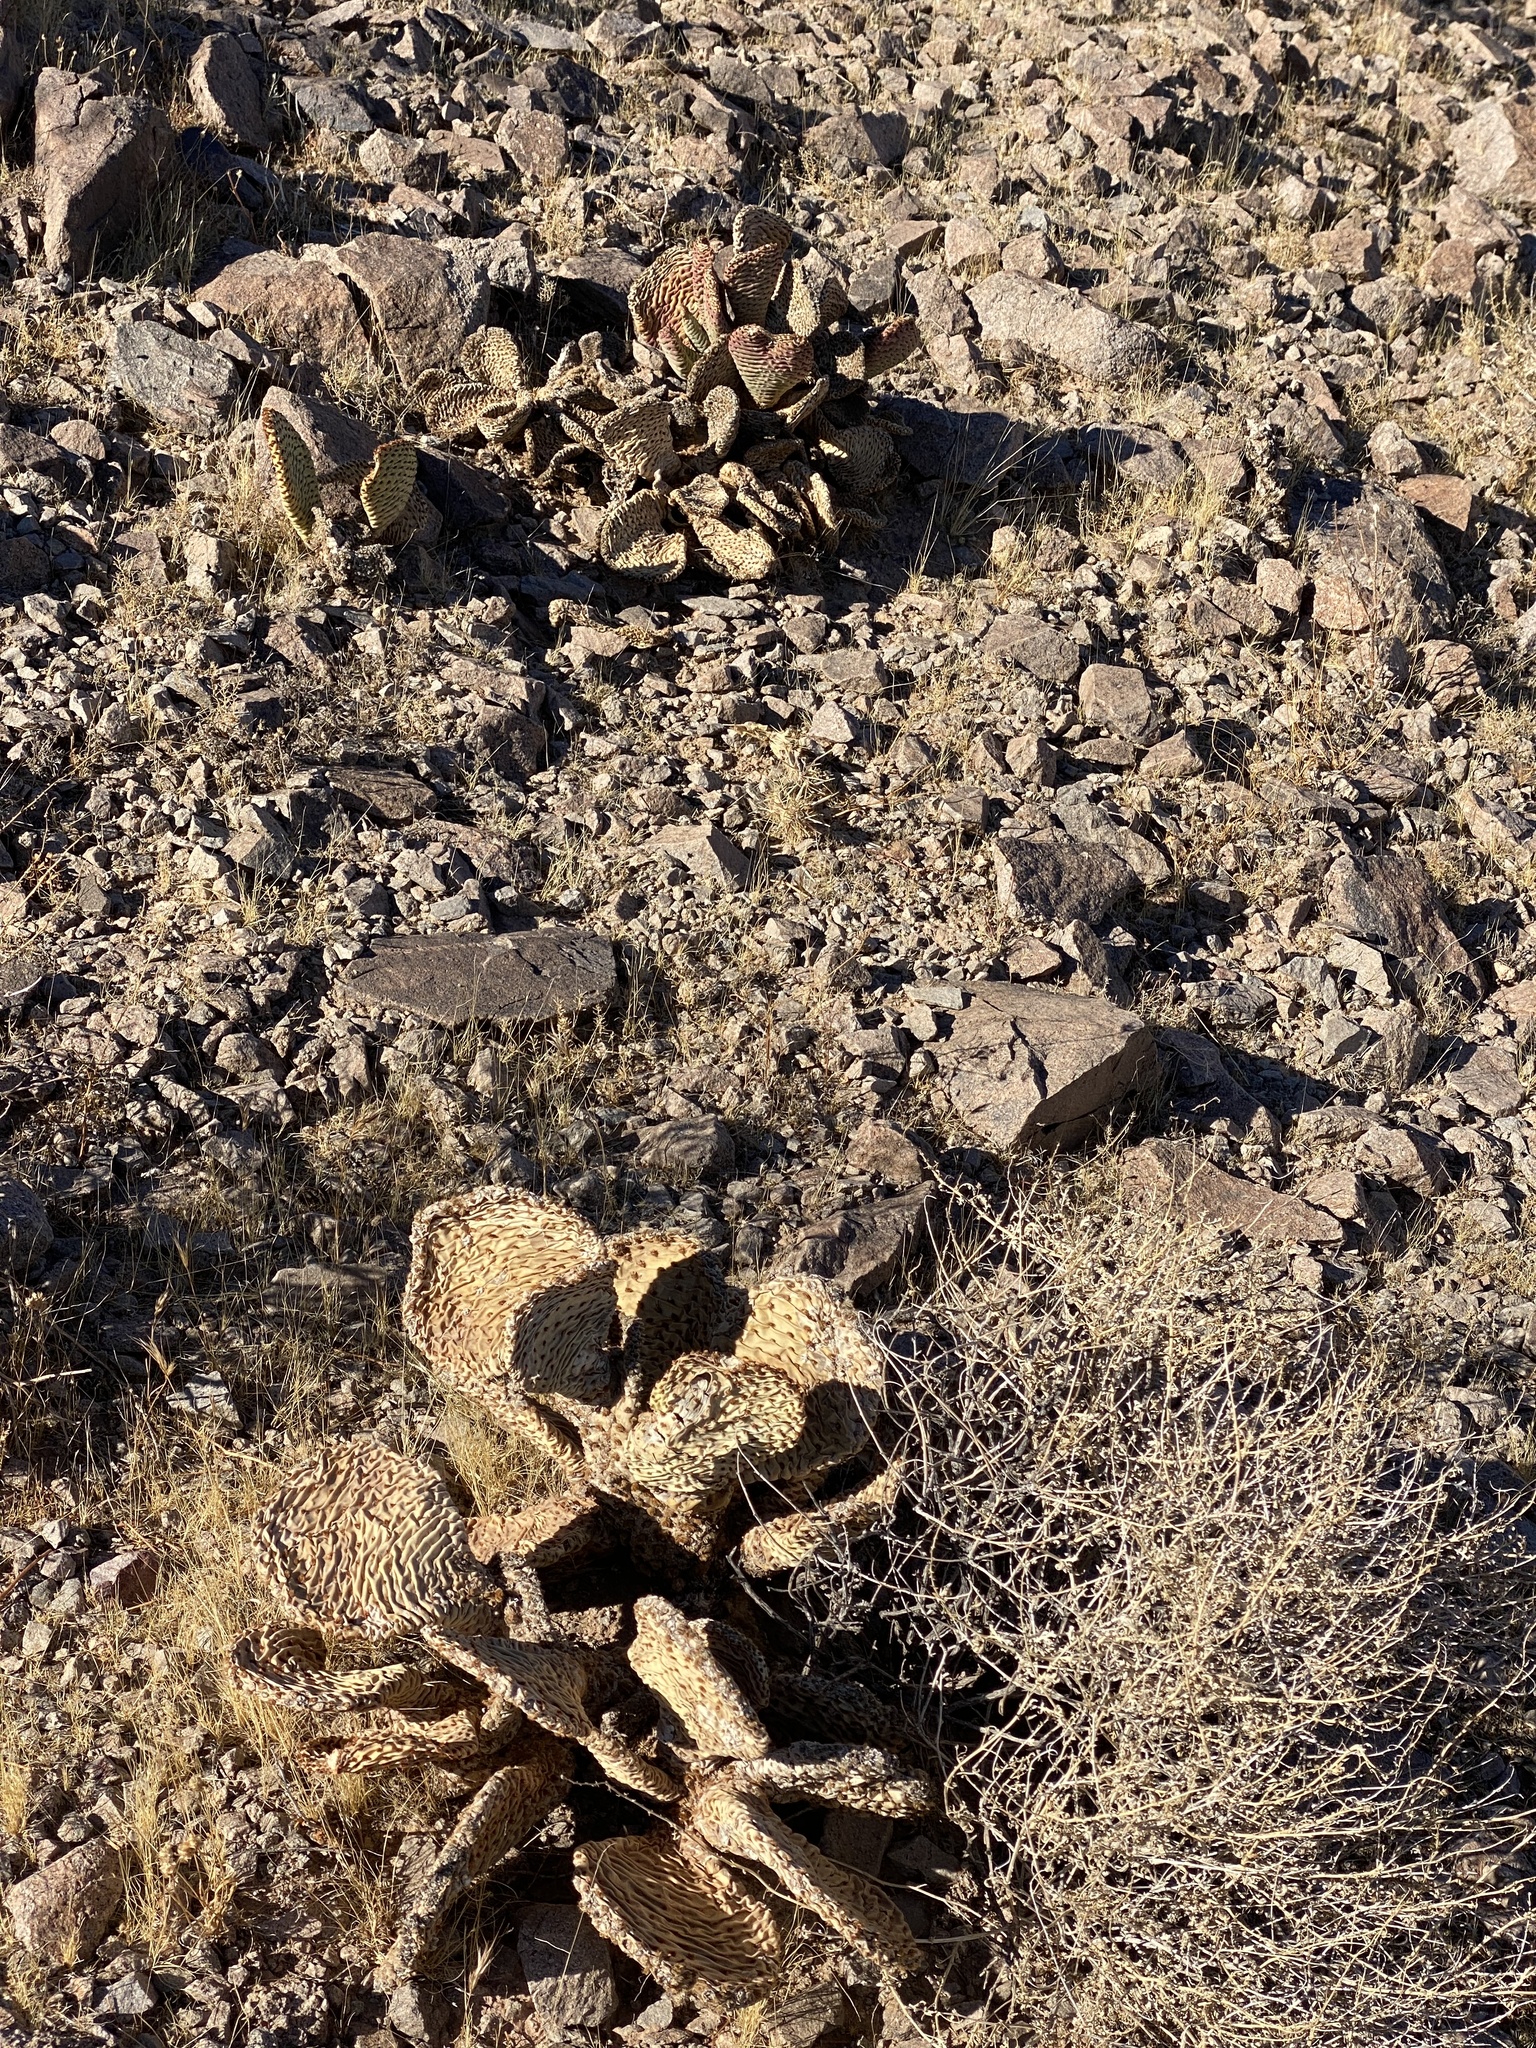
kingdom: Plantae
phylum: Tracheophyta
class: Magnoliopsida
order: Caryophyllales
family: Cactaceae
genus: Opuntia
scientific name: Opuntia basilaris
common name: Beavertail prickly-pear
